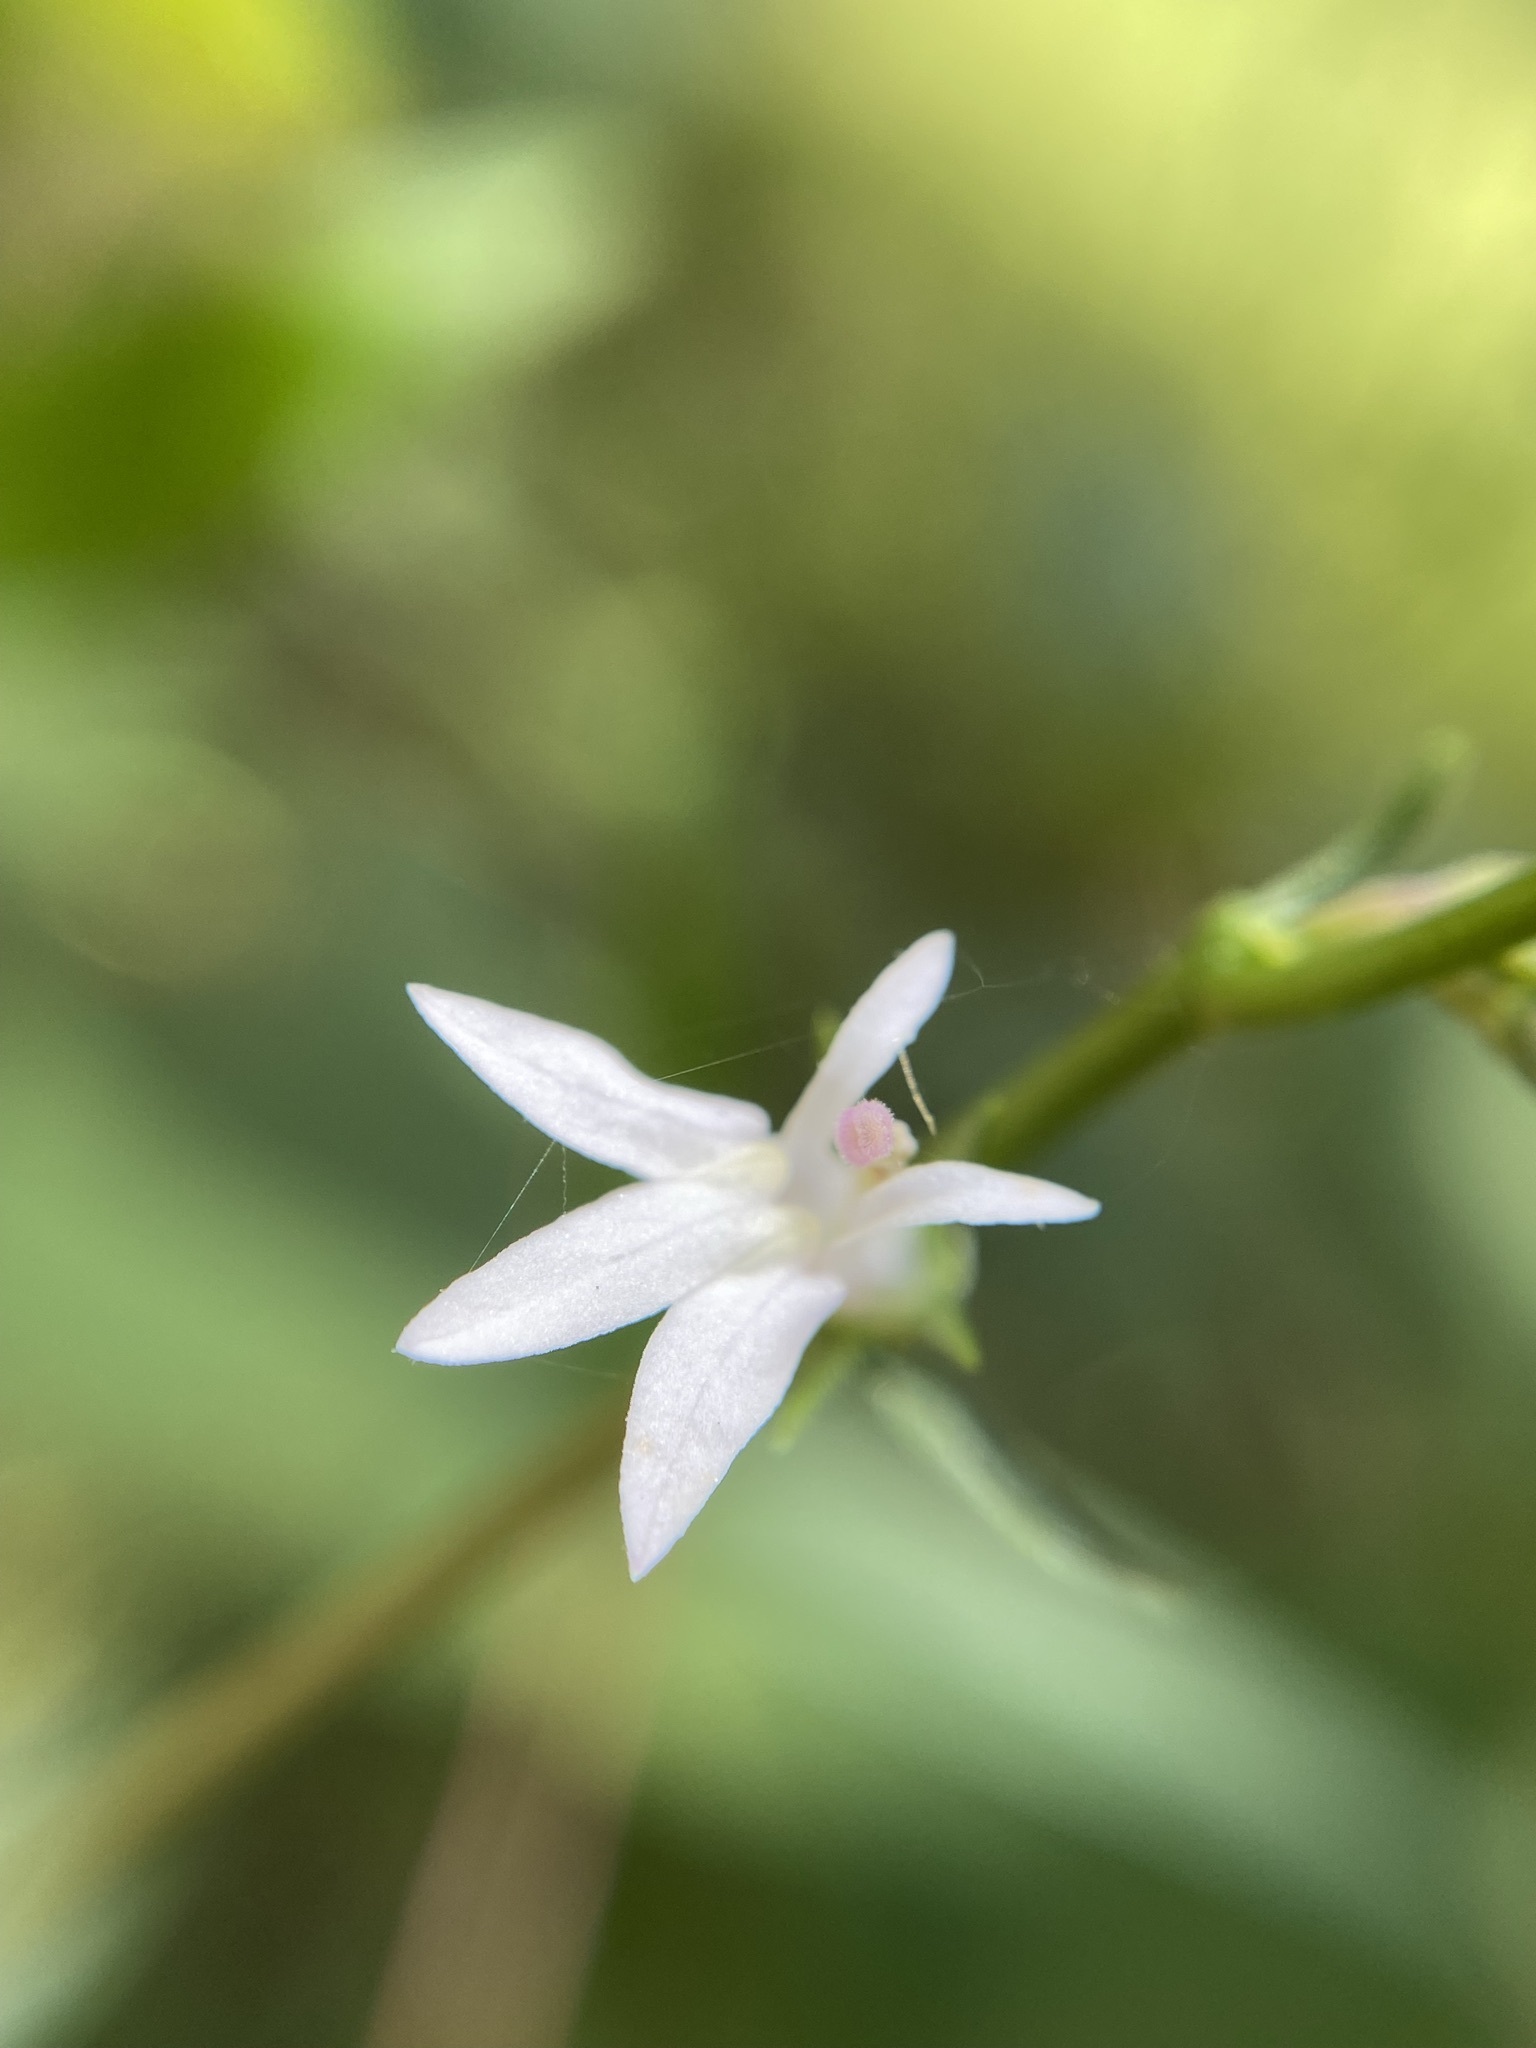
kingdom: Plantae
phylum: Tracheophyta
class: Magnoliopsida
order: Asterales
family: Campanulaceae
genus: Lobelia
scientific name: Lobelia spicata
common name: Pale-spike lobelia
